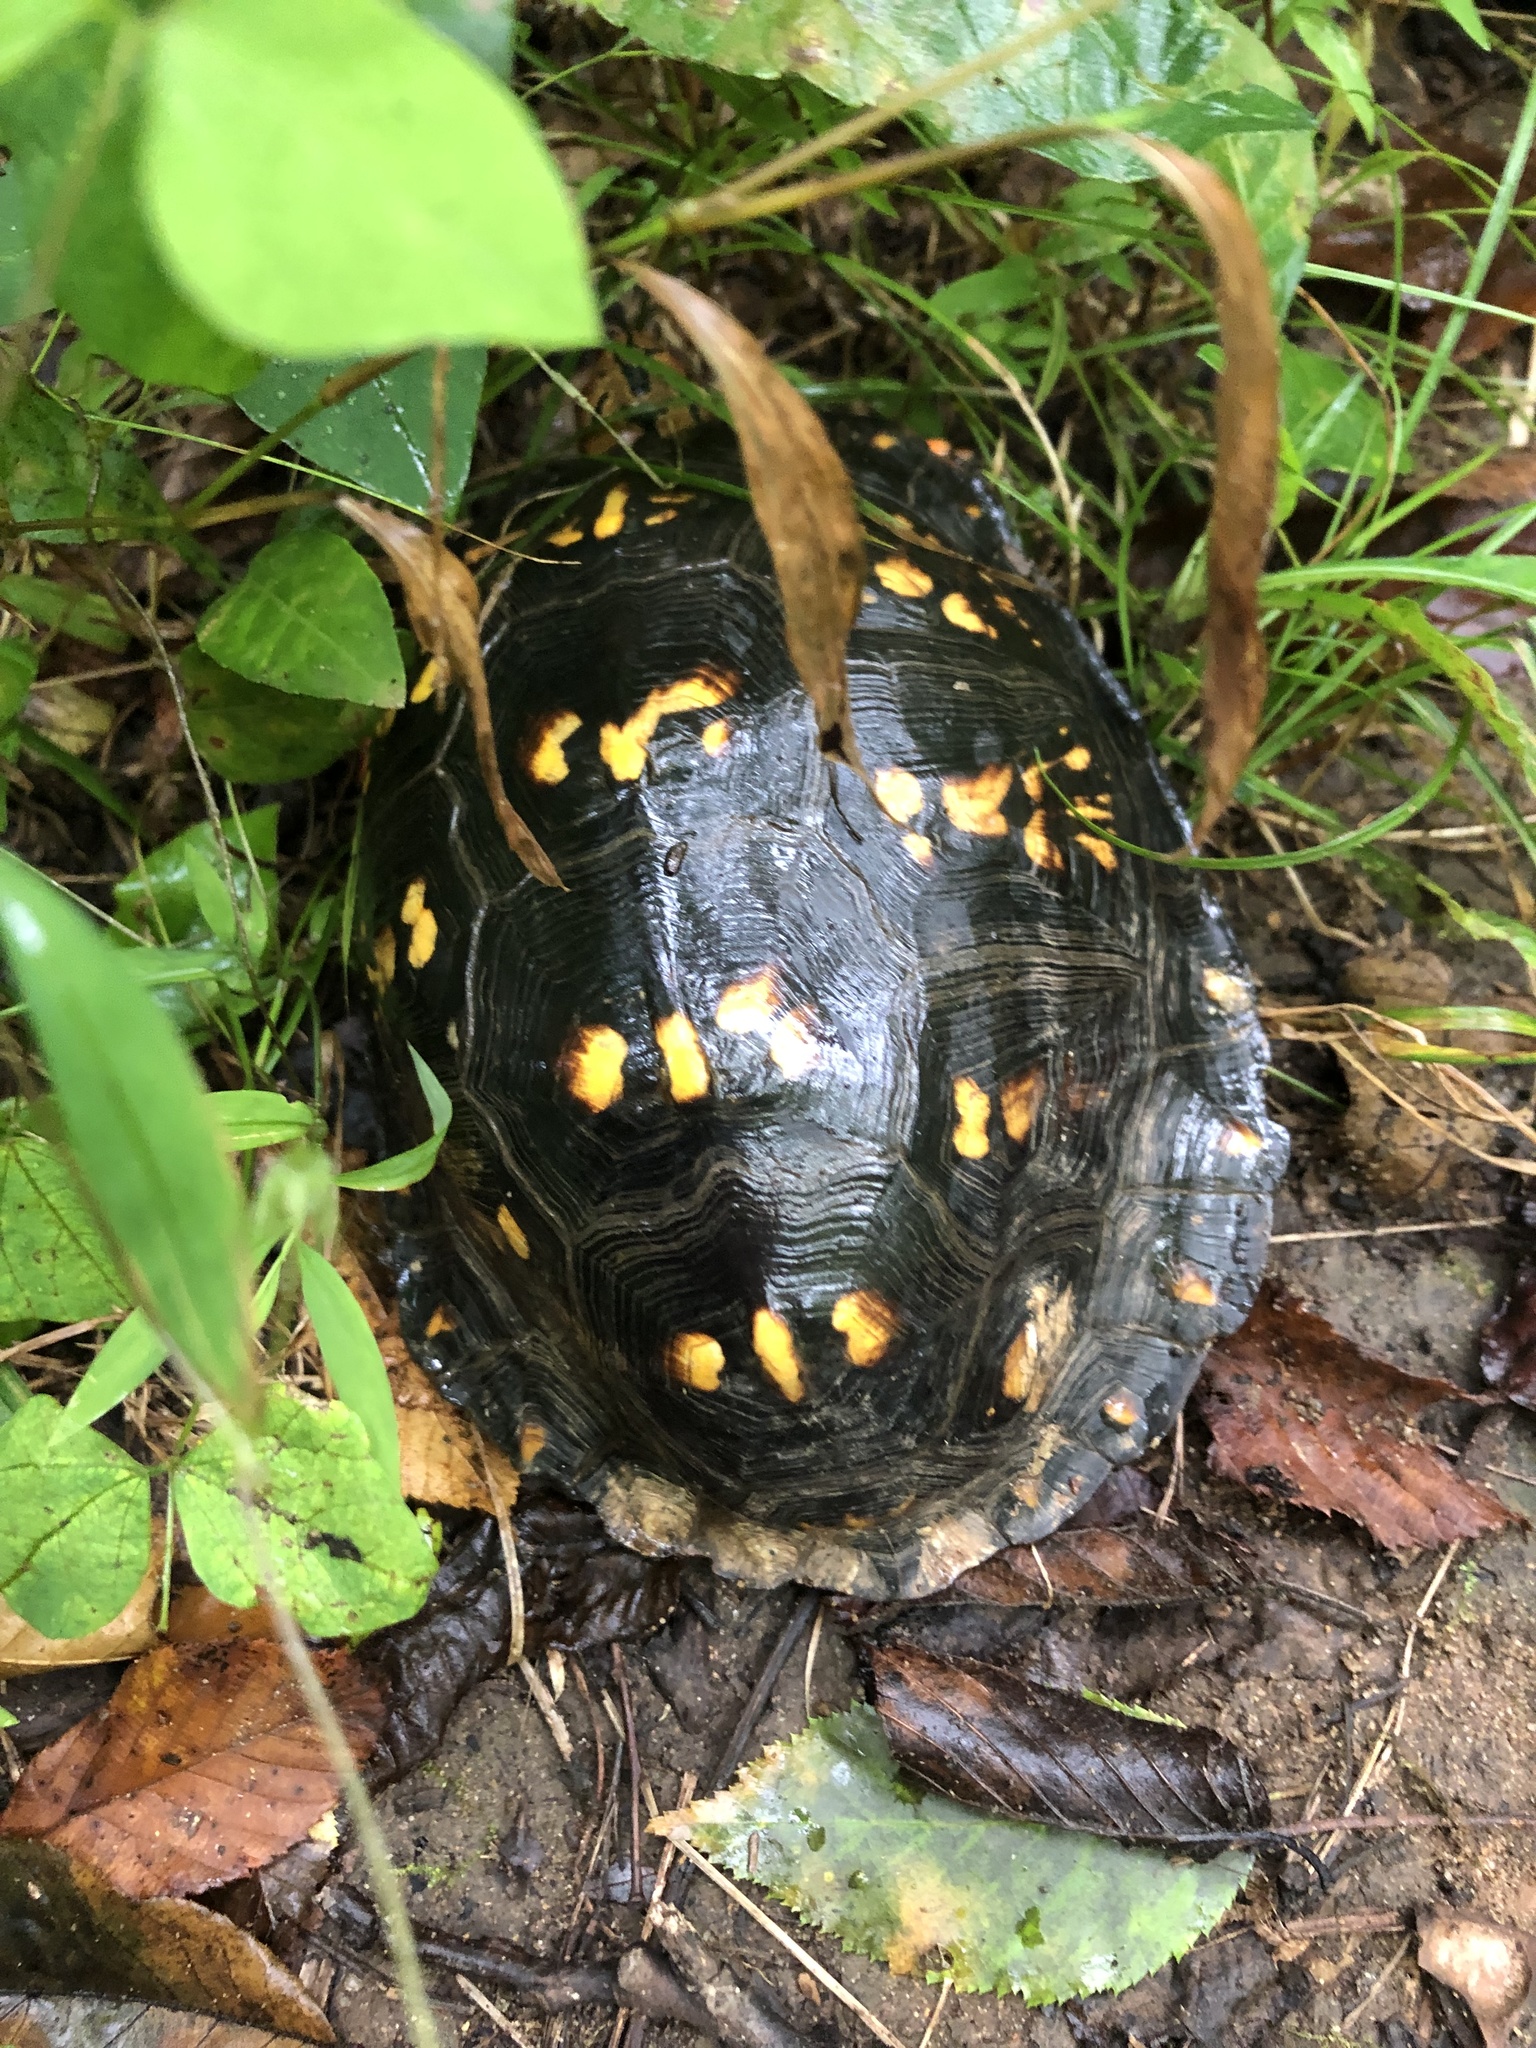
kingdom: Animalia
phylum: Chordata
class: Testudines
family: Emydidae
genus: Terrapene
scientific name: Terrapene carolina
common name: Common box turtle
